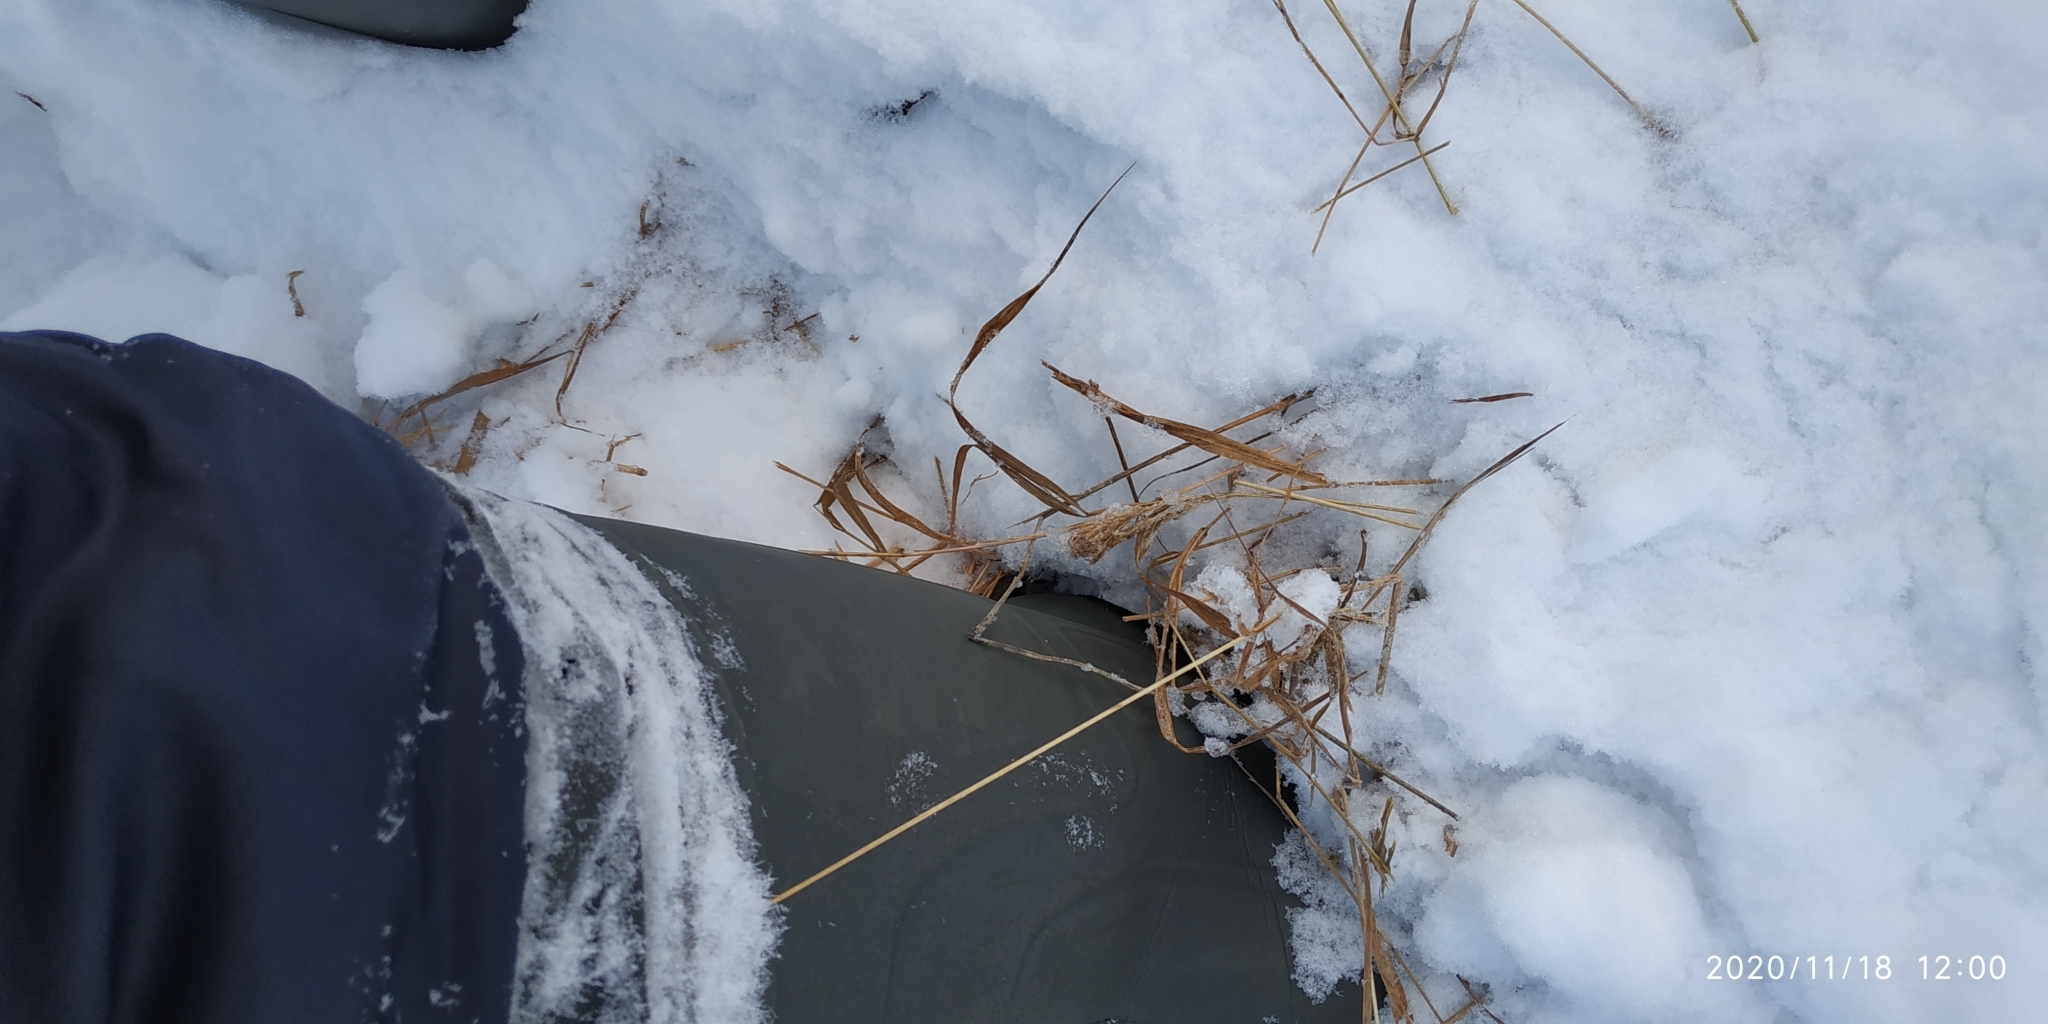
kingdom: Plantae
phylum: Tracheophyta
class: Liliopsida
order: Poales
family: Poaceae
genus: Calamagrostis
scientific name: Calamagrostis purpurea
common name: Scandinavian small-reed
